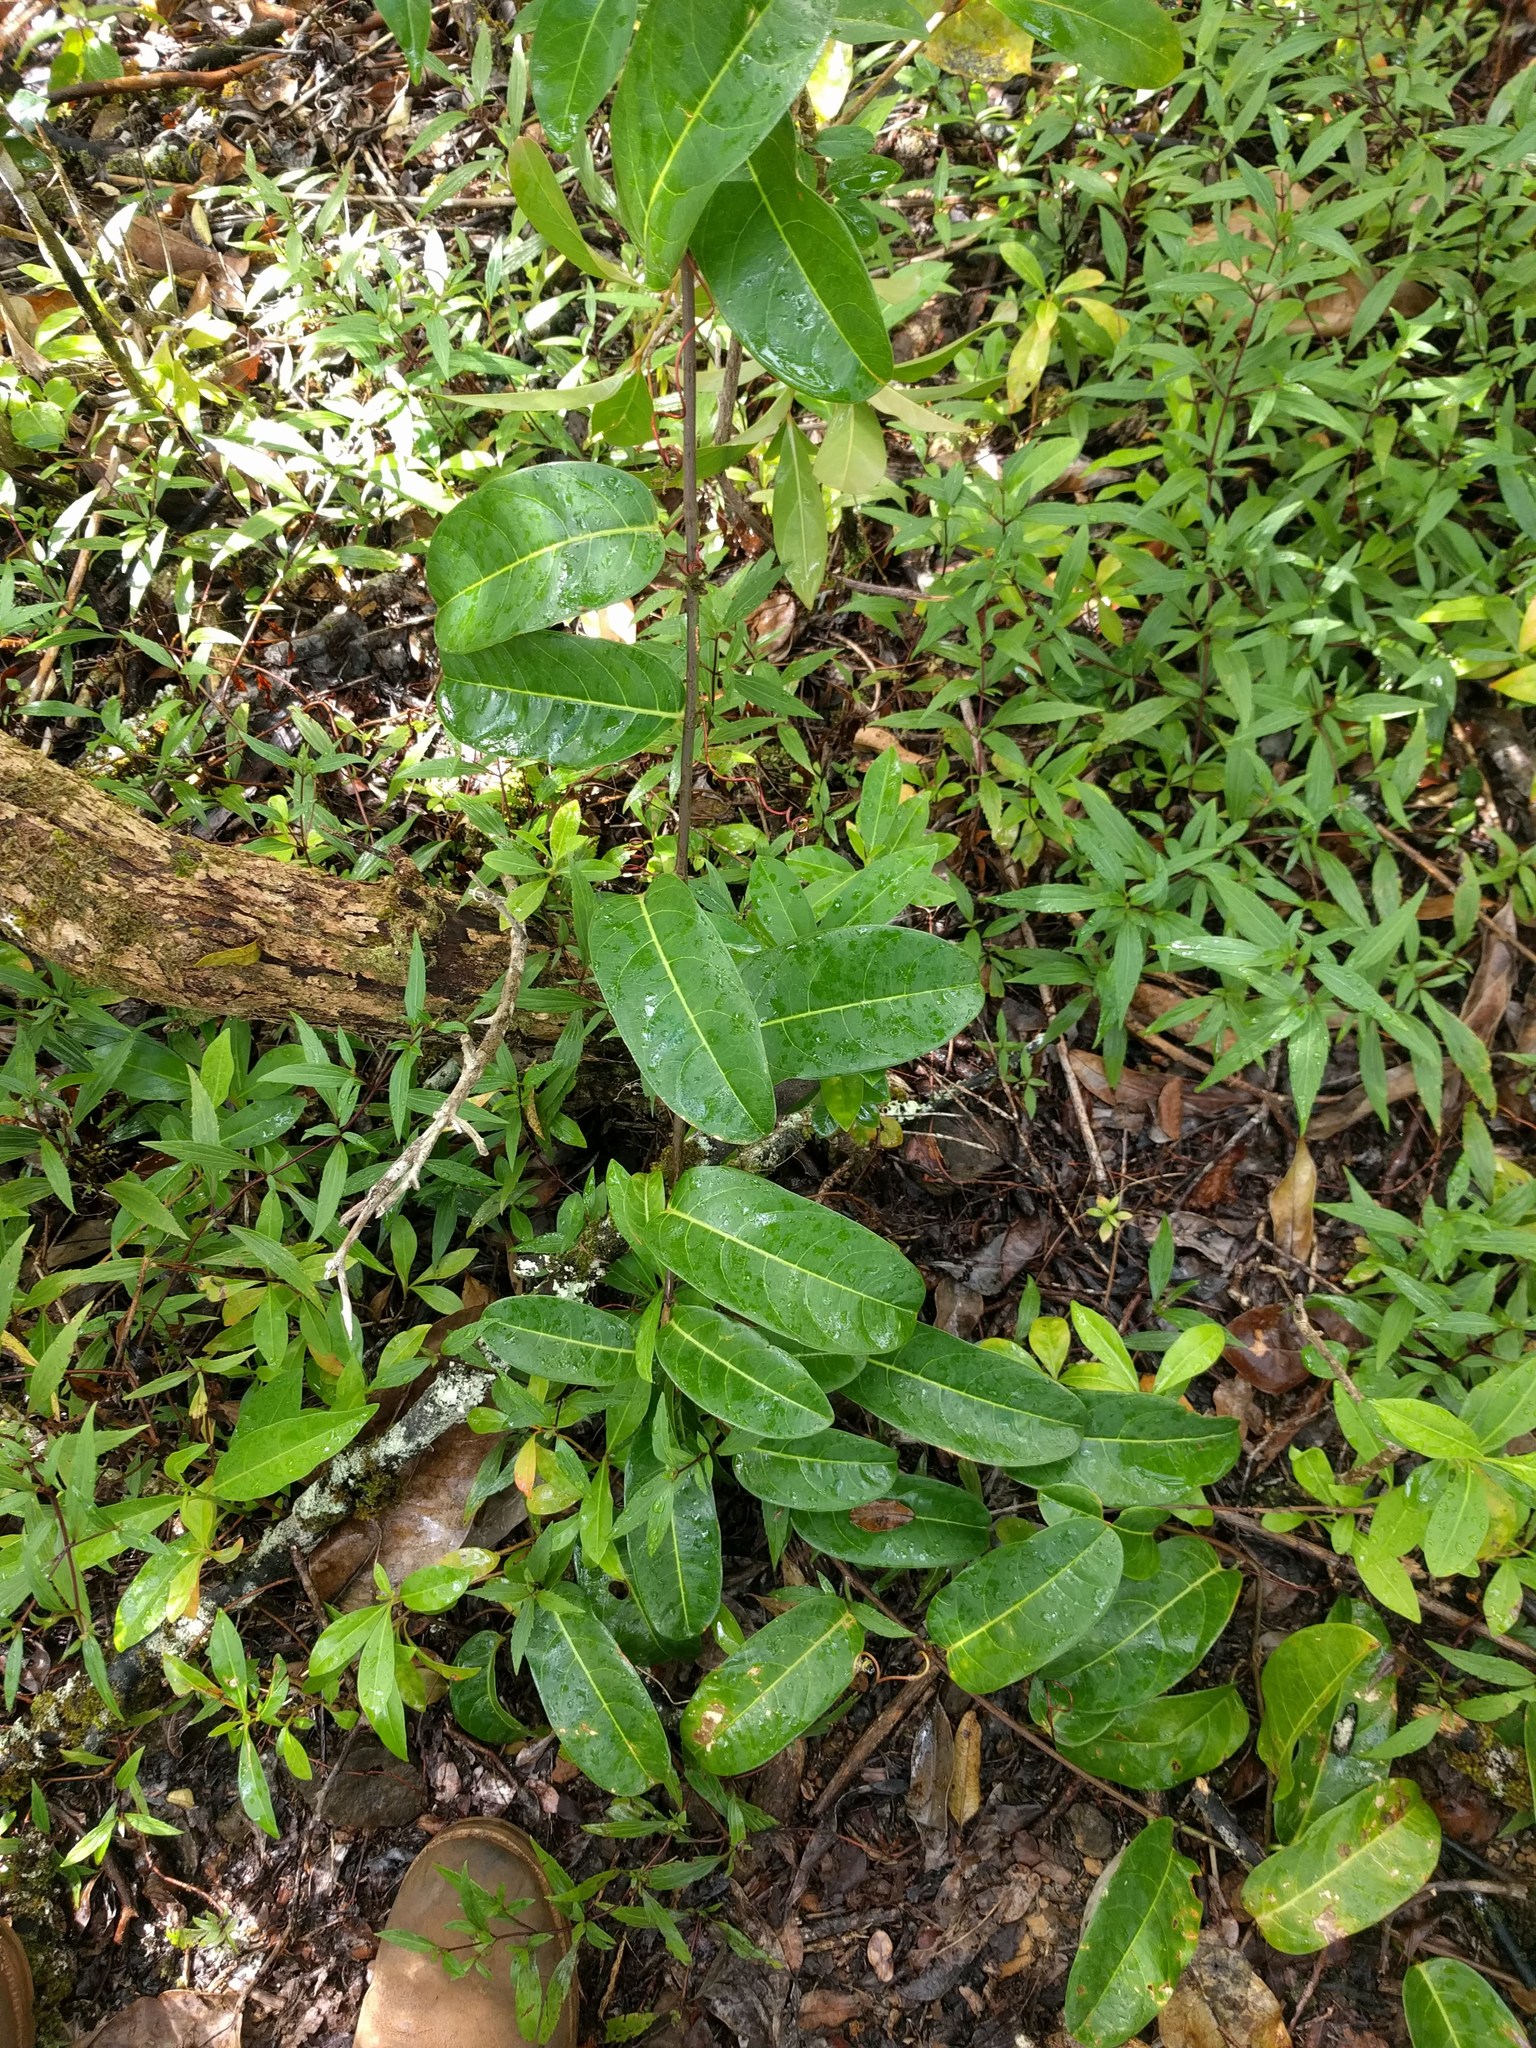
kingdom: Plantae
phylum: Tracheophyta
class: Magnoliopsida
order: Malpighiales
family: Passifloraceae
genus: Passiflora
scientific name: Passiflora laurifolia
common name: Bell apple
